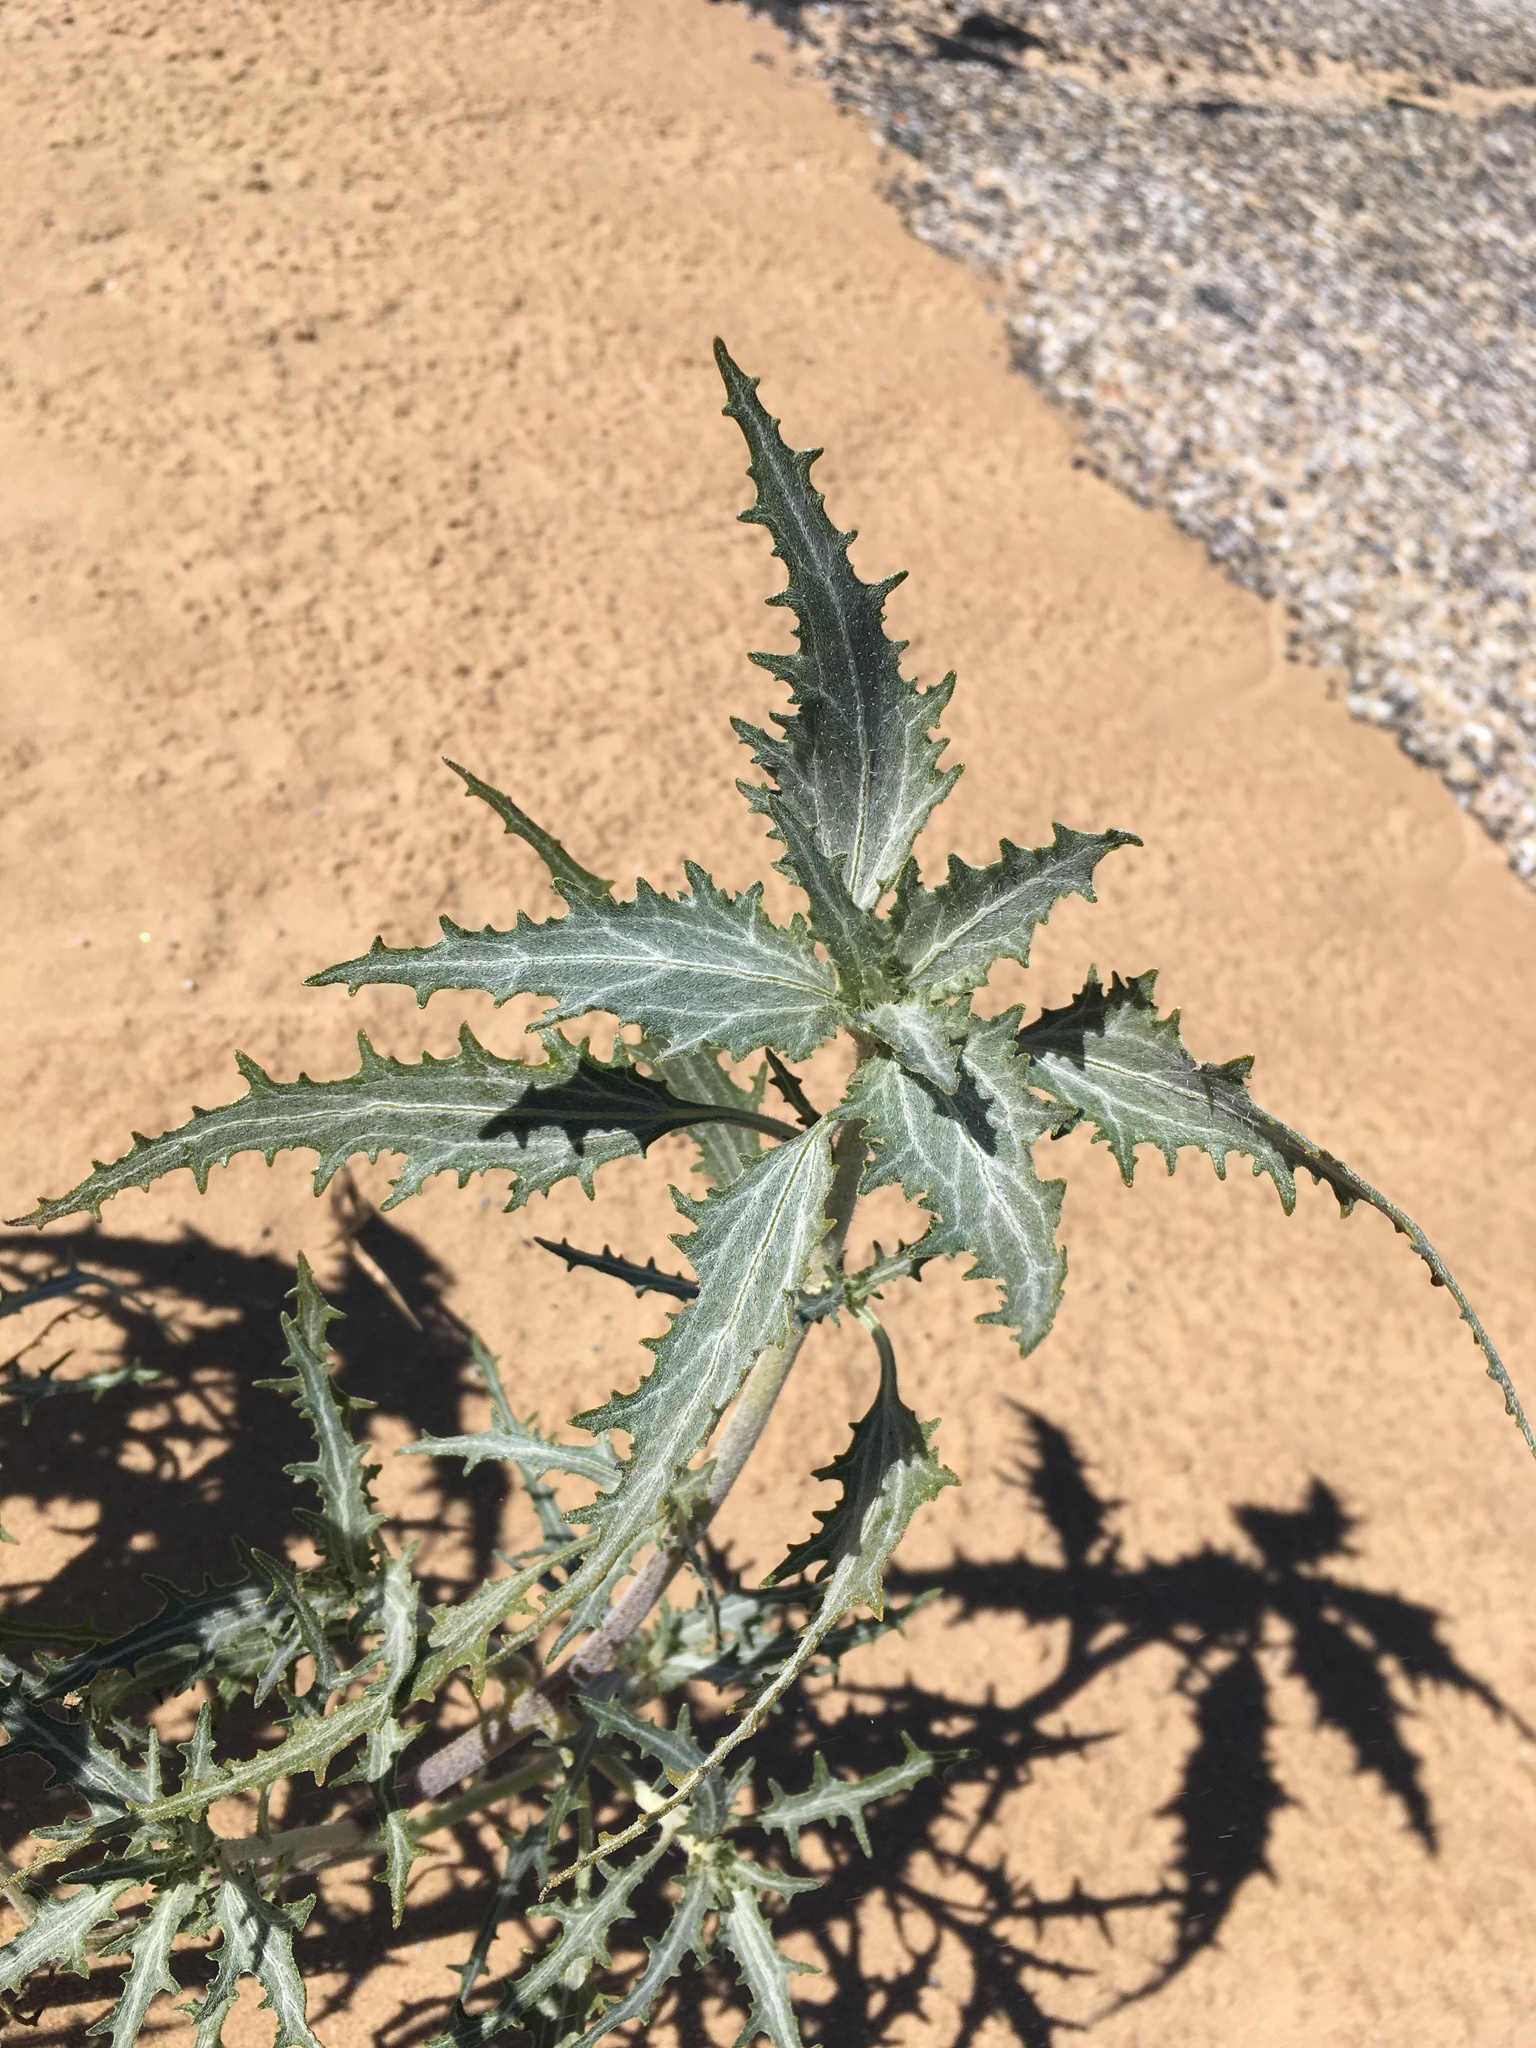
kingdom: Plantae
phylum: Tracheophyta
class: Magnoliopsida
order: Asterales
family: Asteraceae
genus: Dicoria
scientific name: Dicoria canescens
